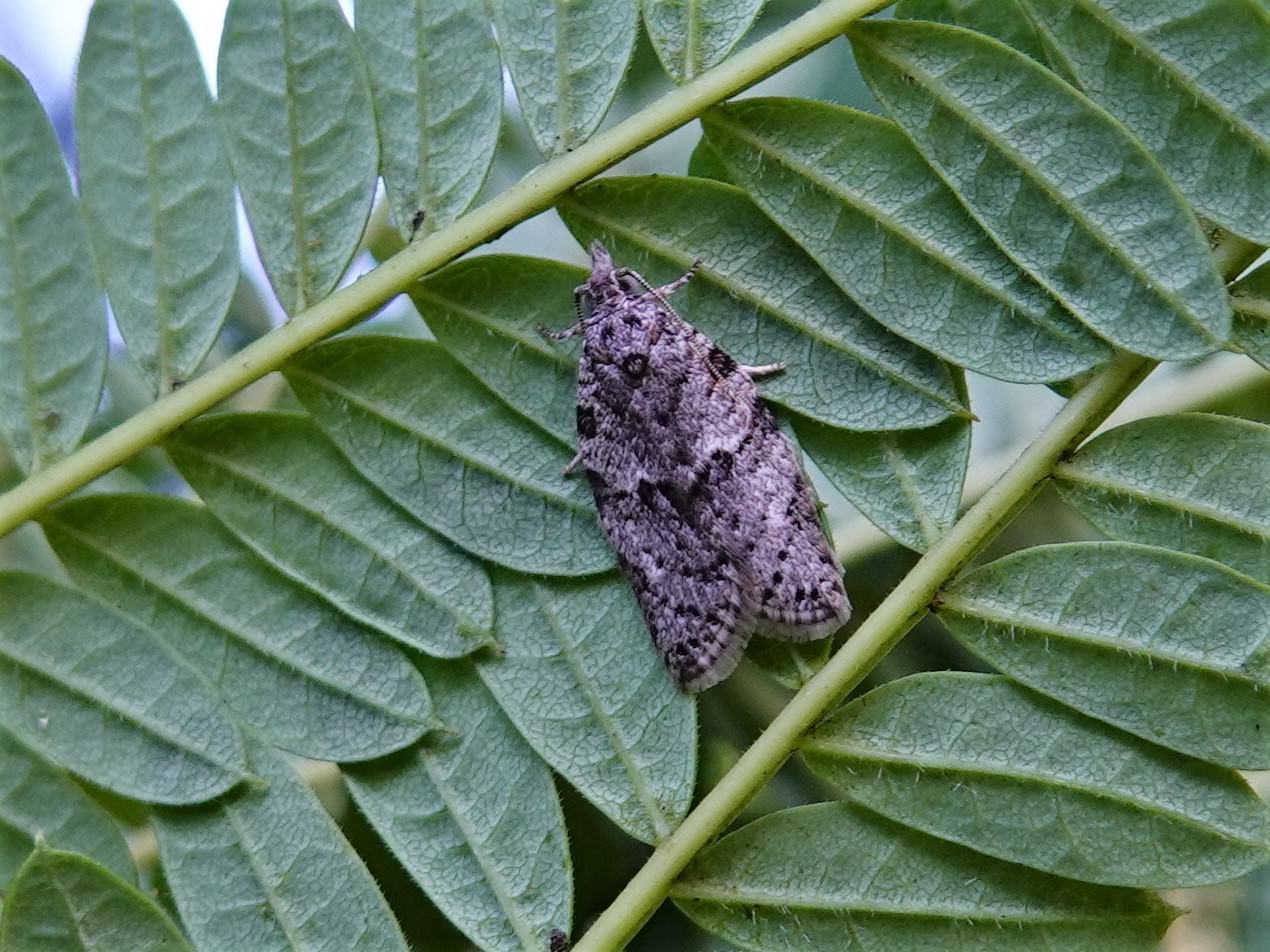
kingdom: Animalia
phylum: Arthropoda
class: Insecta
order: Lepidoptera
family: Tortricidae
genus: Isotenes
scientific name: Isotenes miserana
